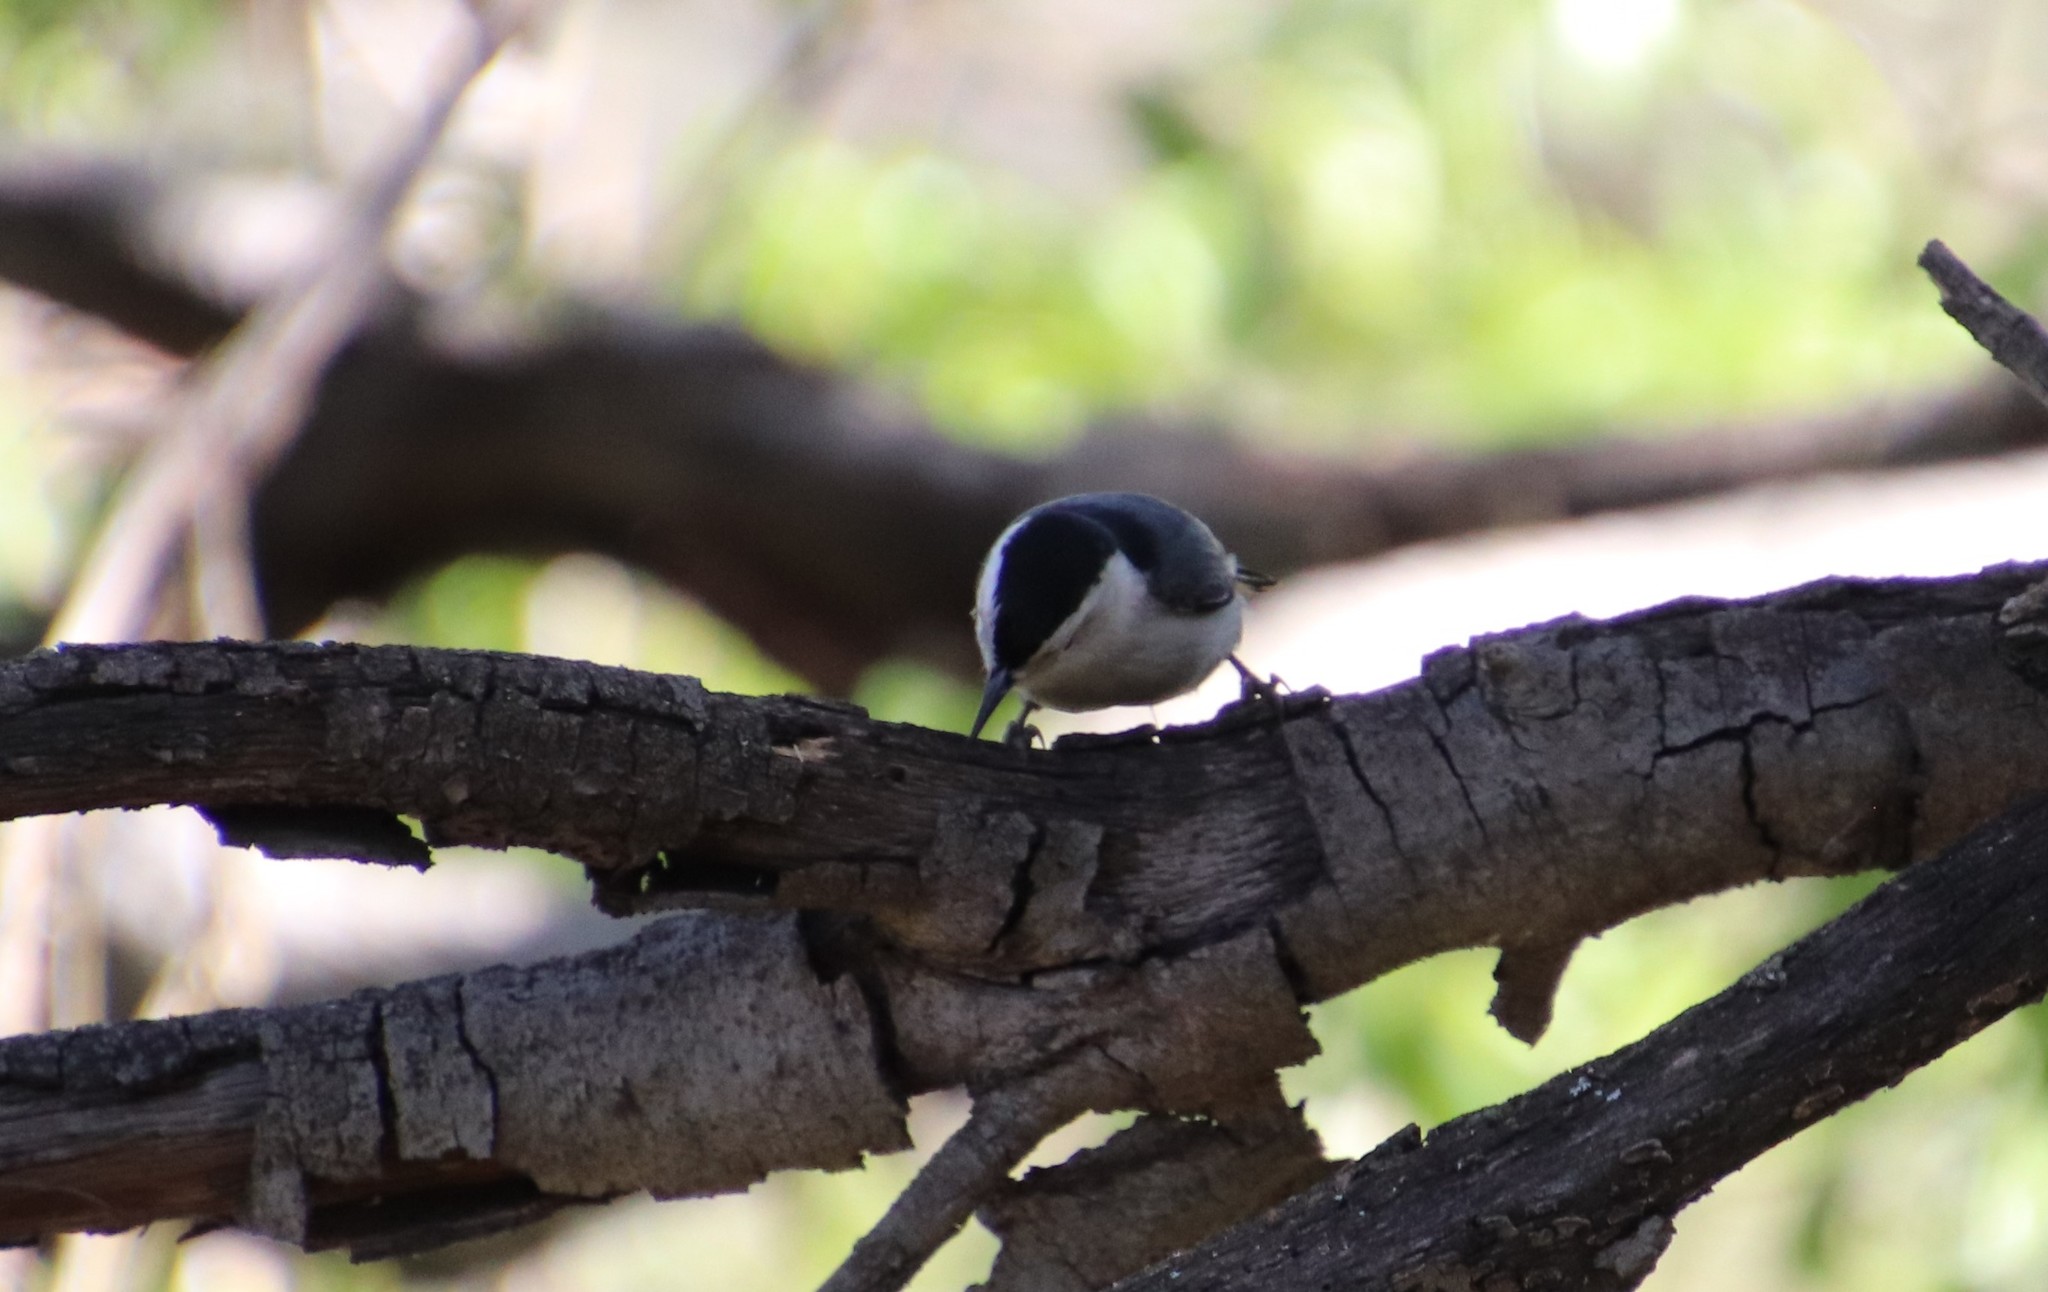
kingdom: Animalia
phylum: Chordata
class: Aves
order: Passeriformes
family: Sittidae
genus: Sitta
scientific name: Sitta carolinensis
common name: White-breasted nuthatch
